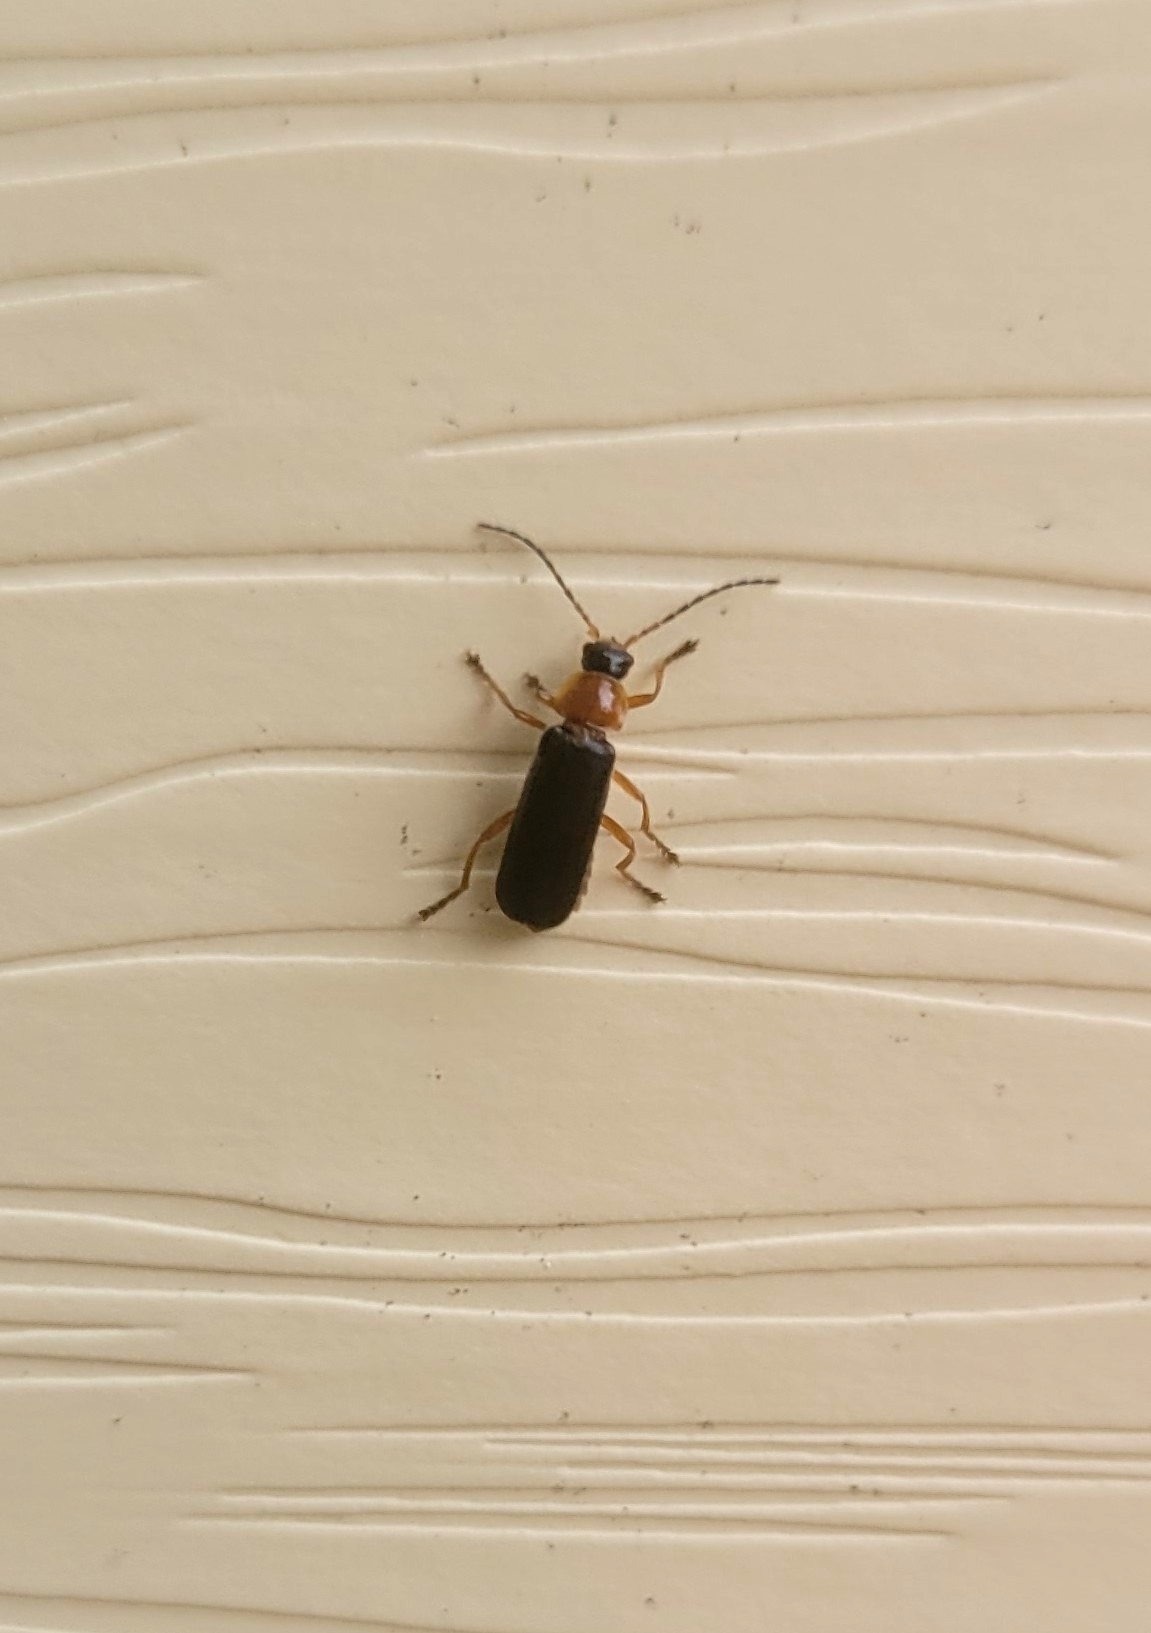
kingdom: Animalia
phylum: Arthropoda
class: Insecta
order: Coleoptera
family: Cantharidae
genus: Cantharis
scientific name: Cantharis flavilabris
